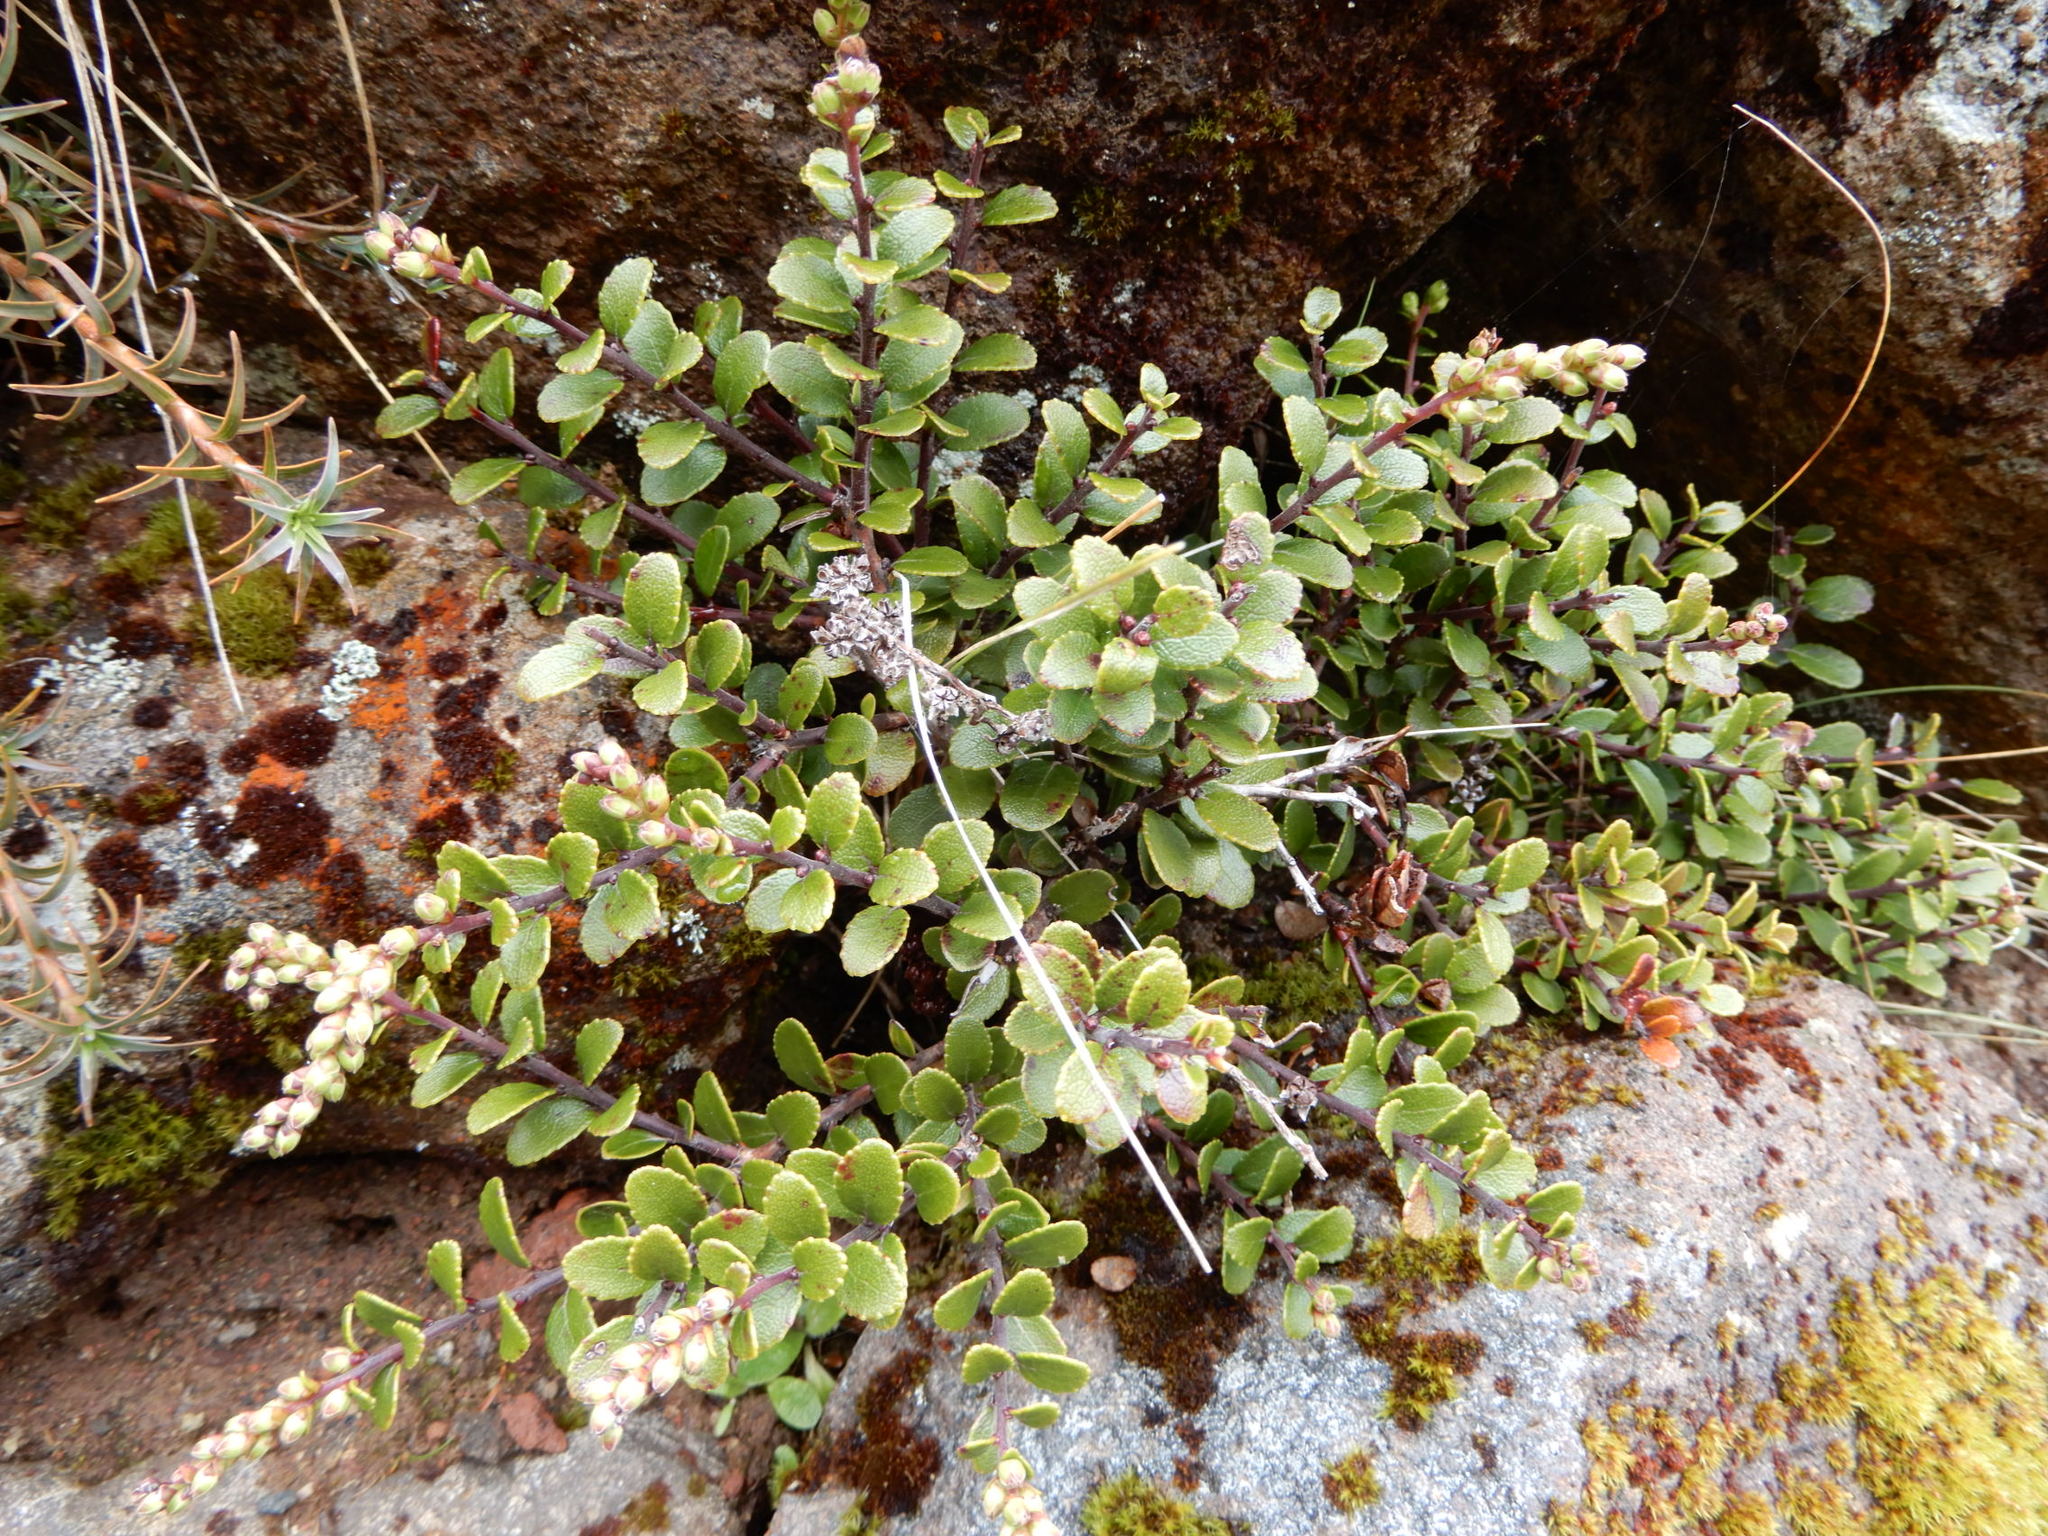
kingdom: Plantae
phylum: Tracheophyta
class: Magnoliopsida
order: Ericales
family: Ericaceae
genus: Gaultheria
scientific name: Gaultheria colensoi
